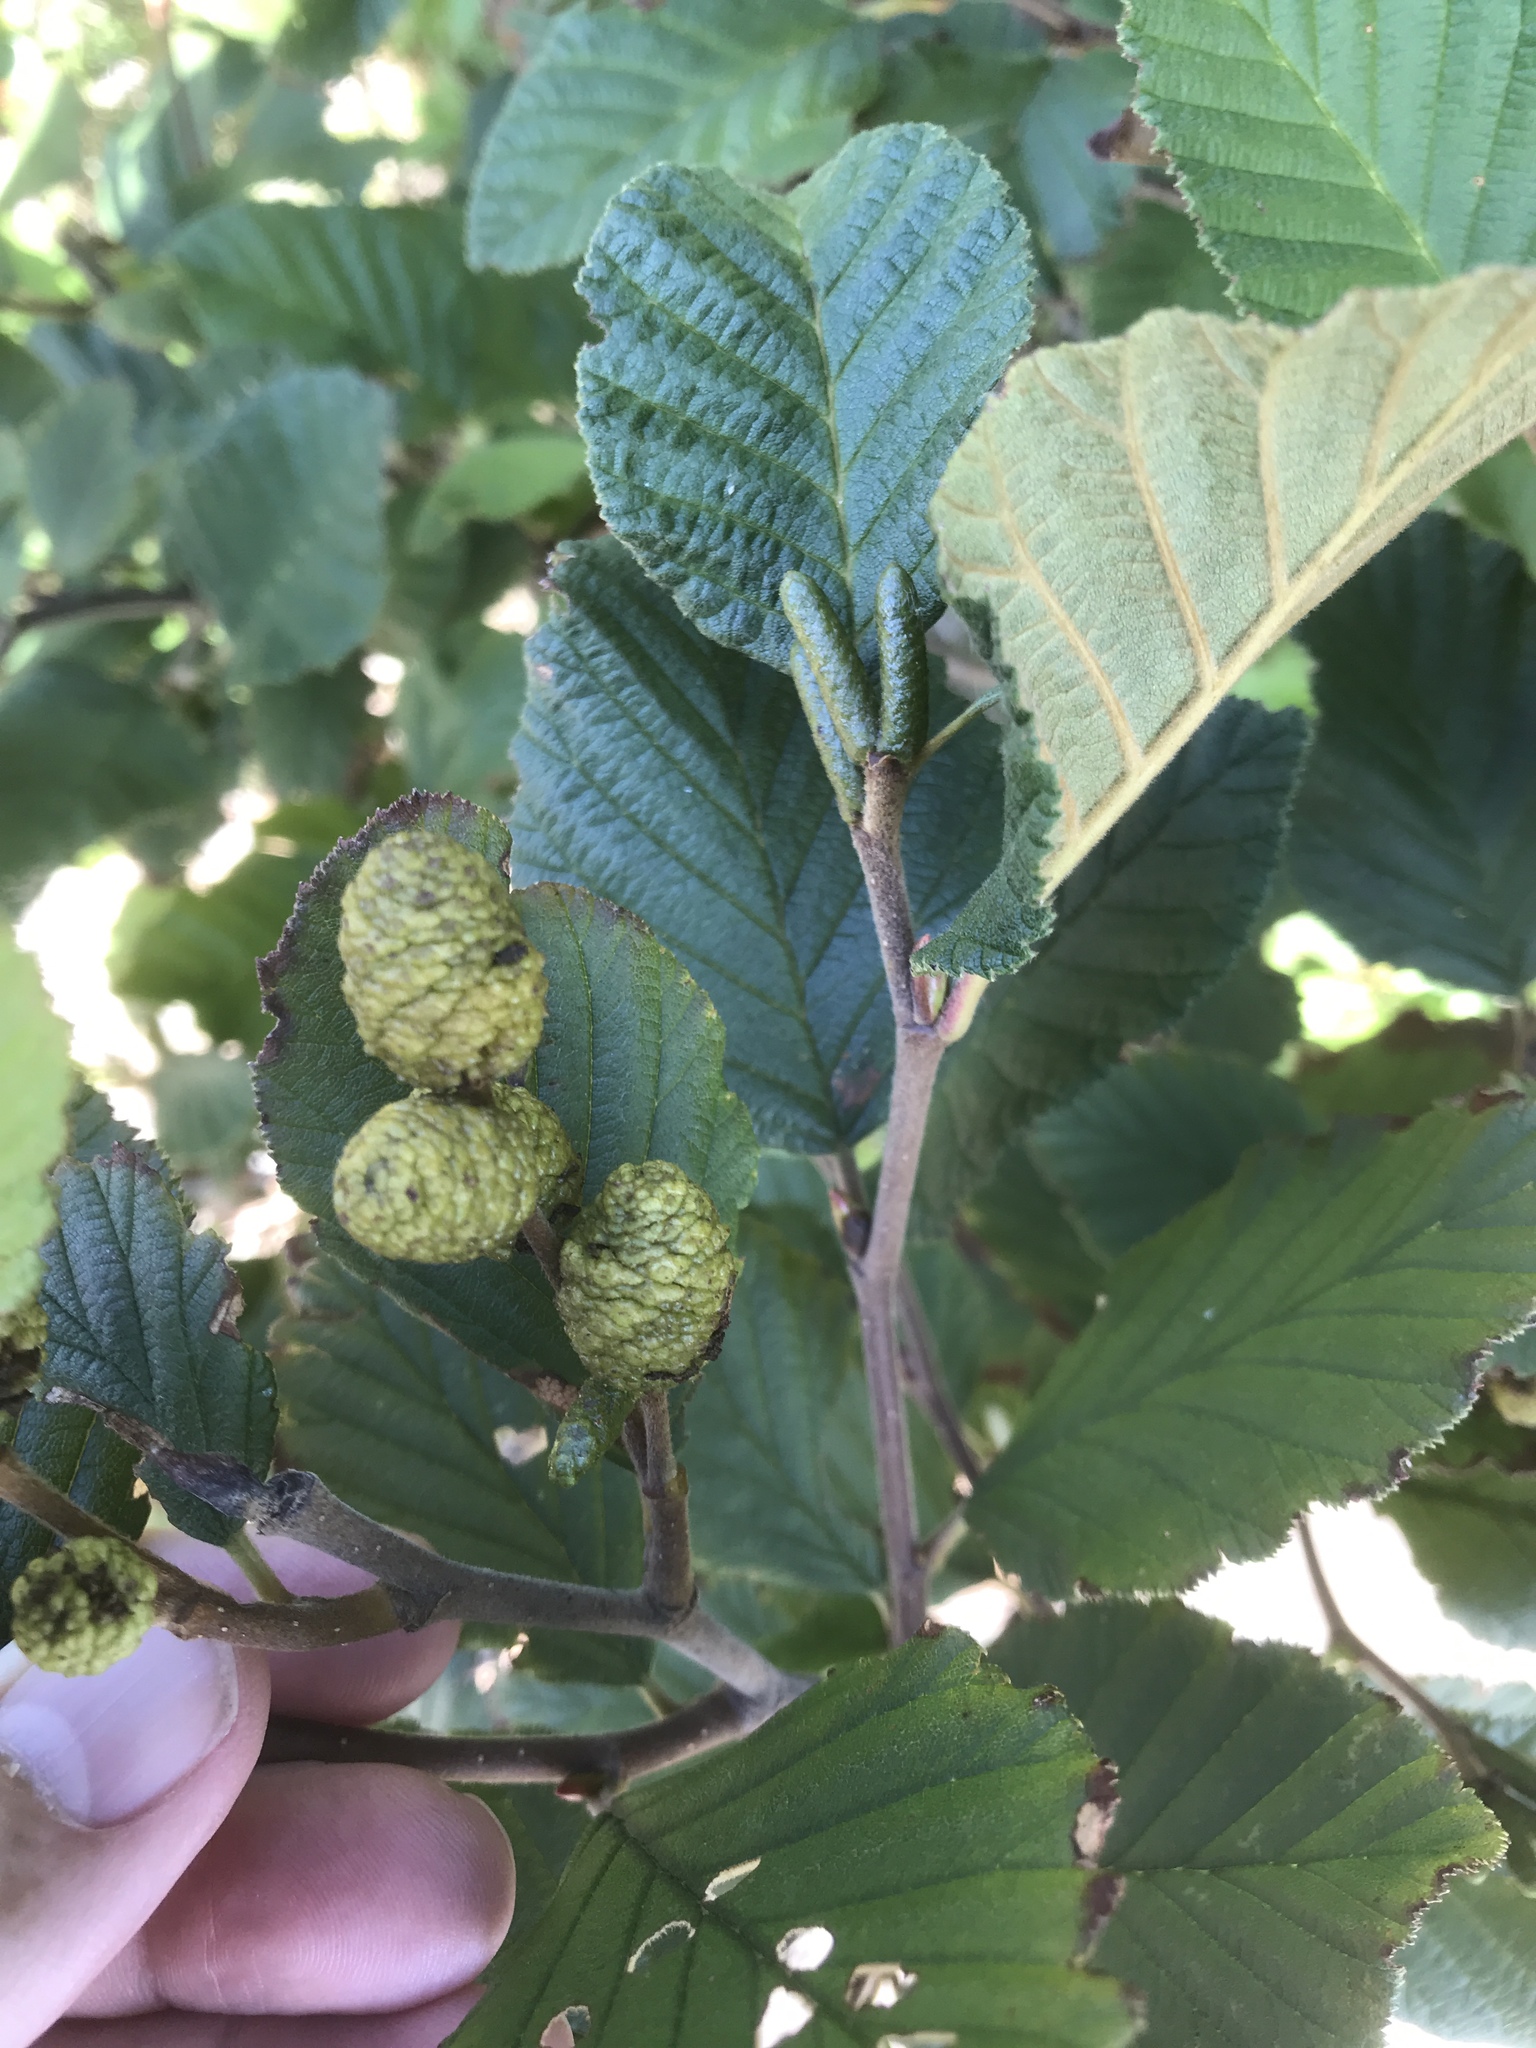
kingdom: Plantae
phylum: Tracheophyta
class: Magnoliopsida
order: Fagales
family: Betulaceae
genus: Alnus
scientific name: Alnus alnobetula
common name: Green alder
